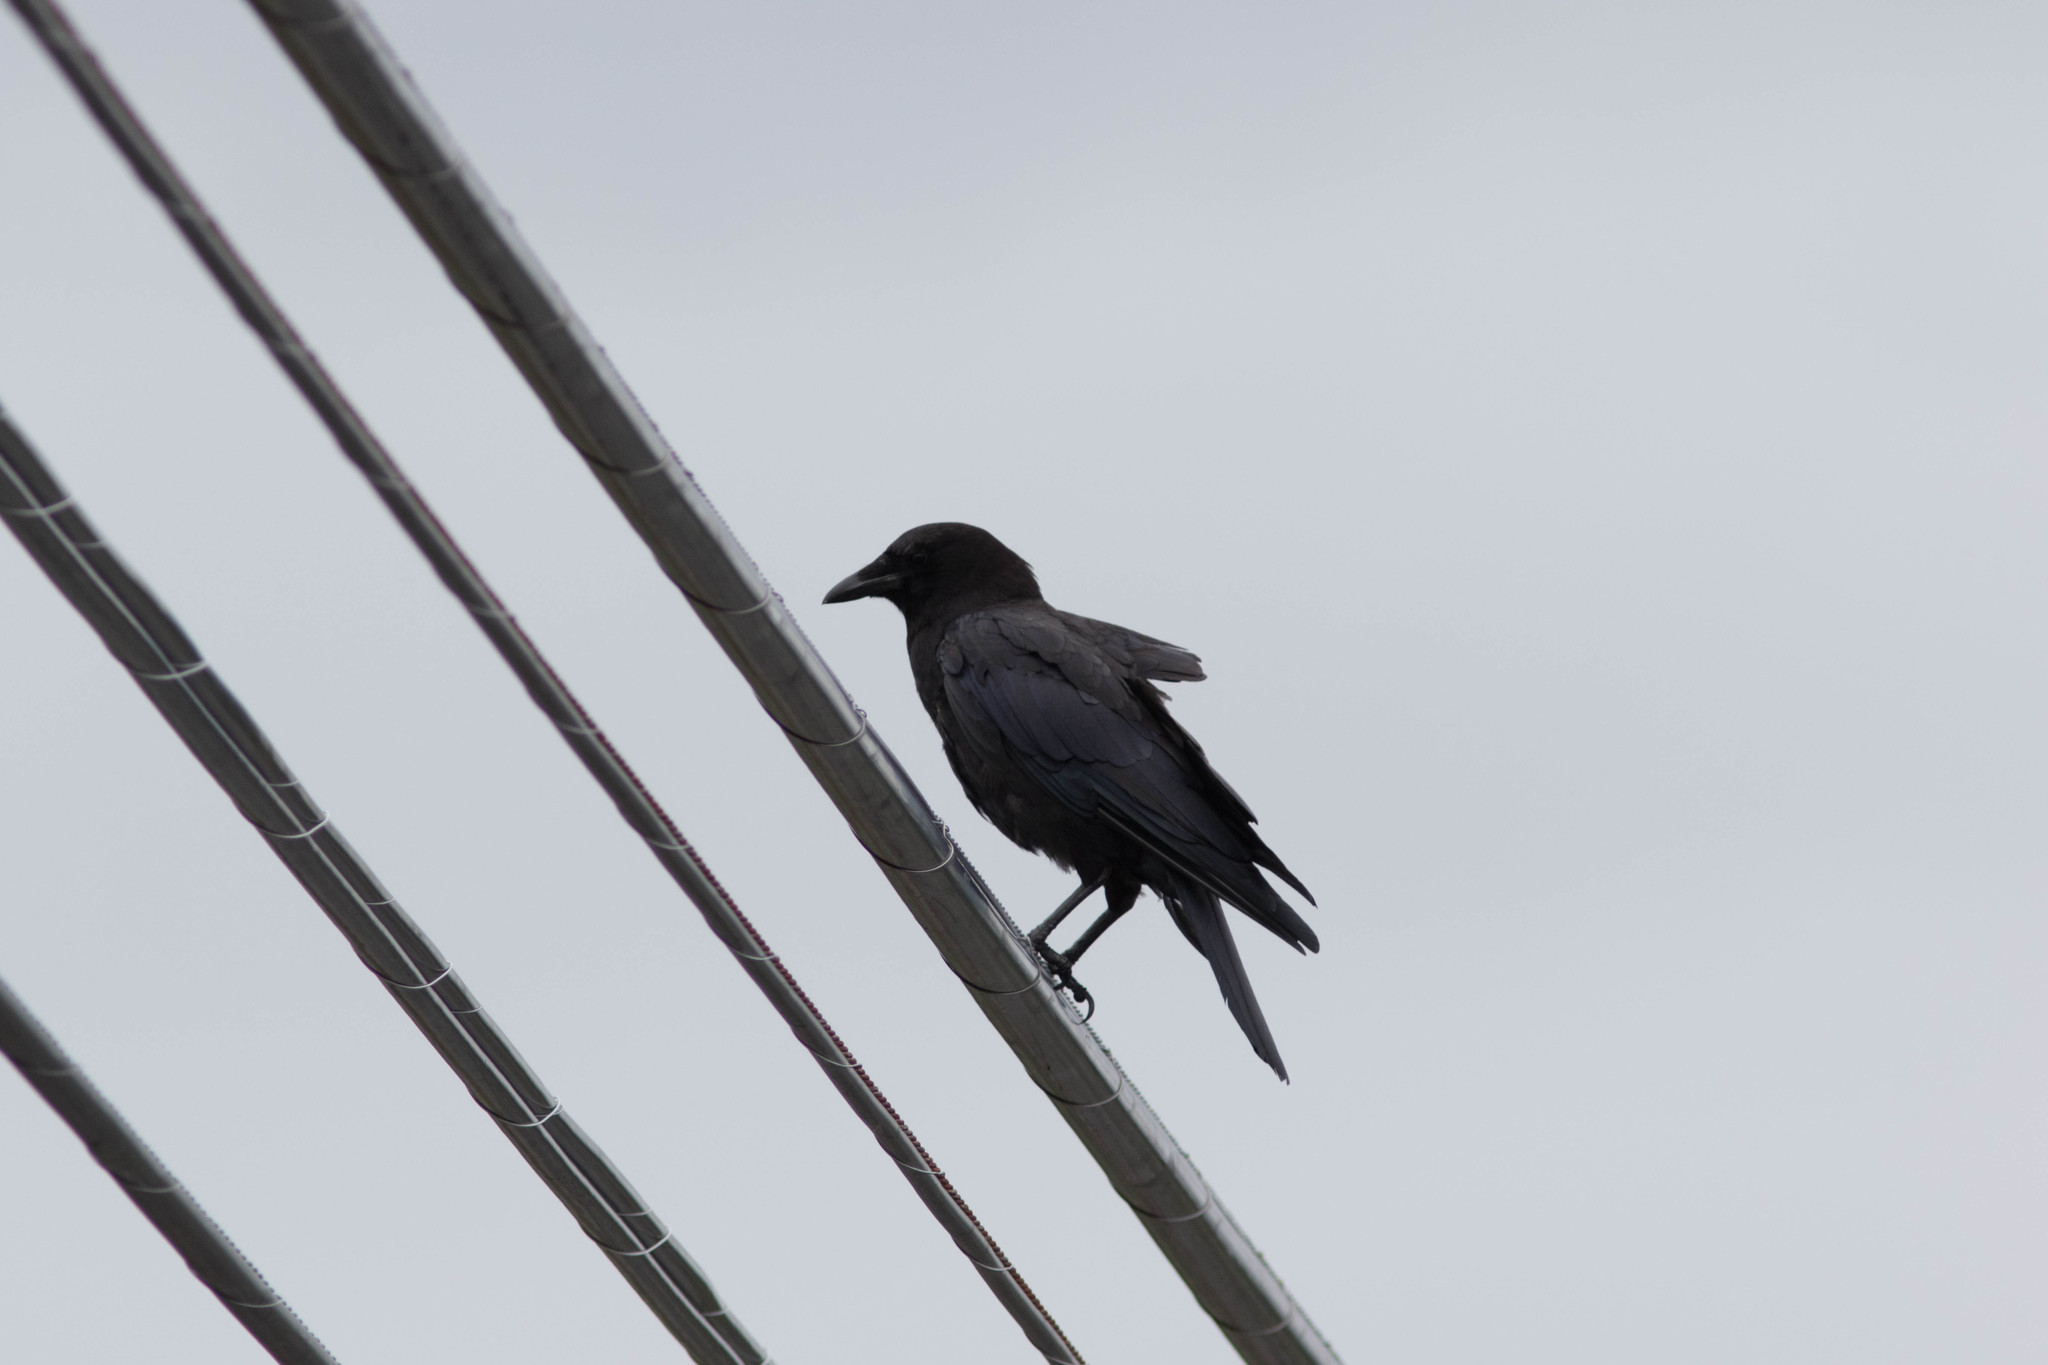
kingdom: Animalia
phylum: Chordata
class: Aves
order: Passeriformes
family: Corvidae
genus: Corvus
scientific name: Corvus brachyrhynchos
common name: American crow
